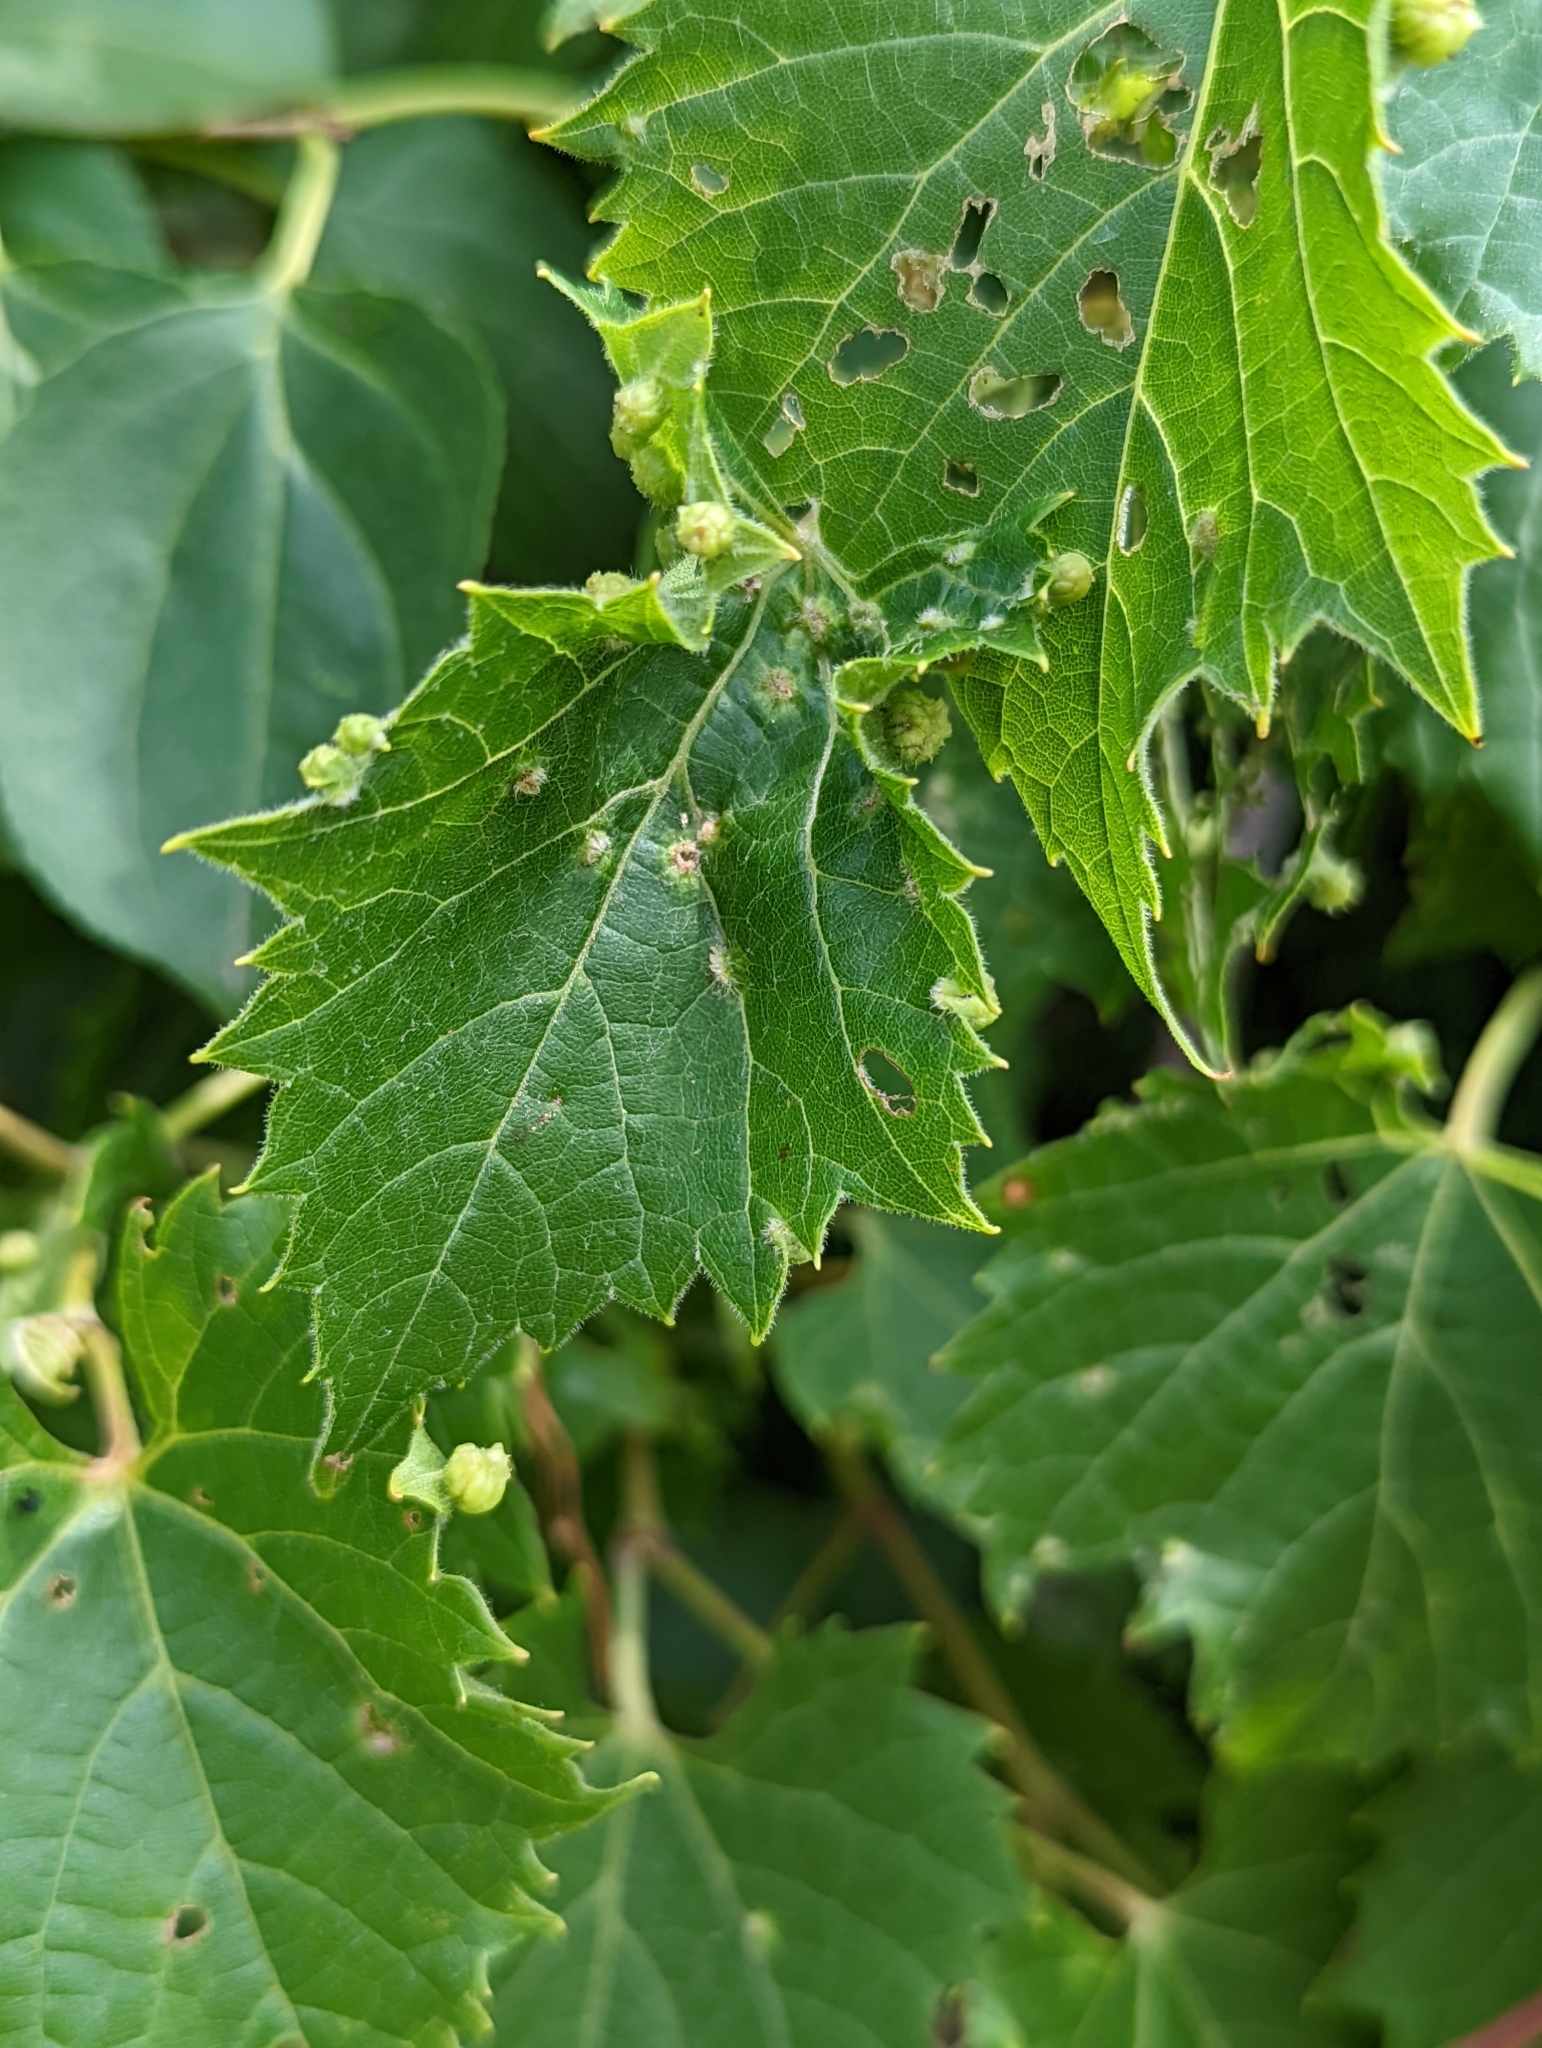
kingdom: Animalia
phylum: Arthropoda
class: Insecta
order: Hemiptera
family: Phylloxeridae
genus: Daktulosphaira
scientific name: Daktulosphaira vitifoliae
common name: Grape phylloxera
